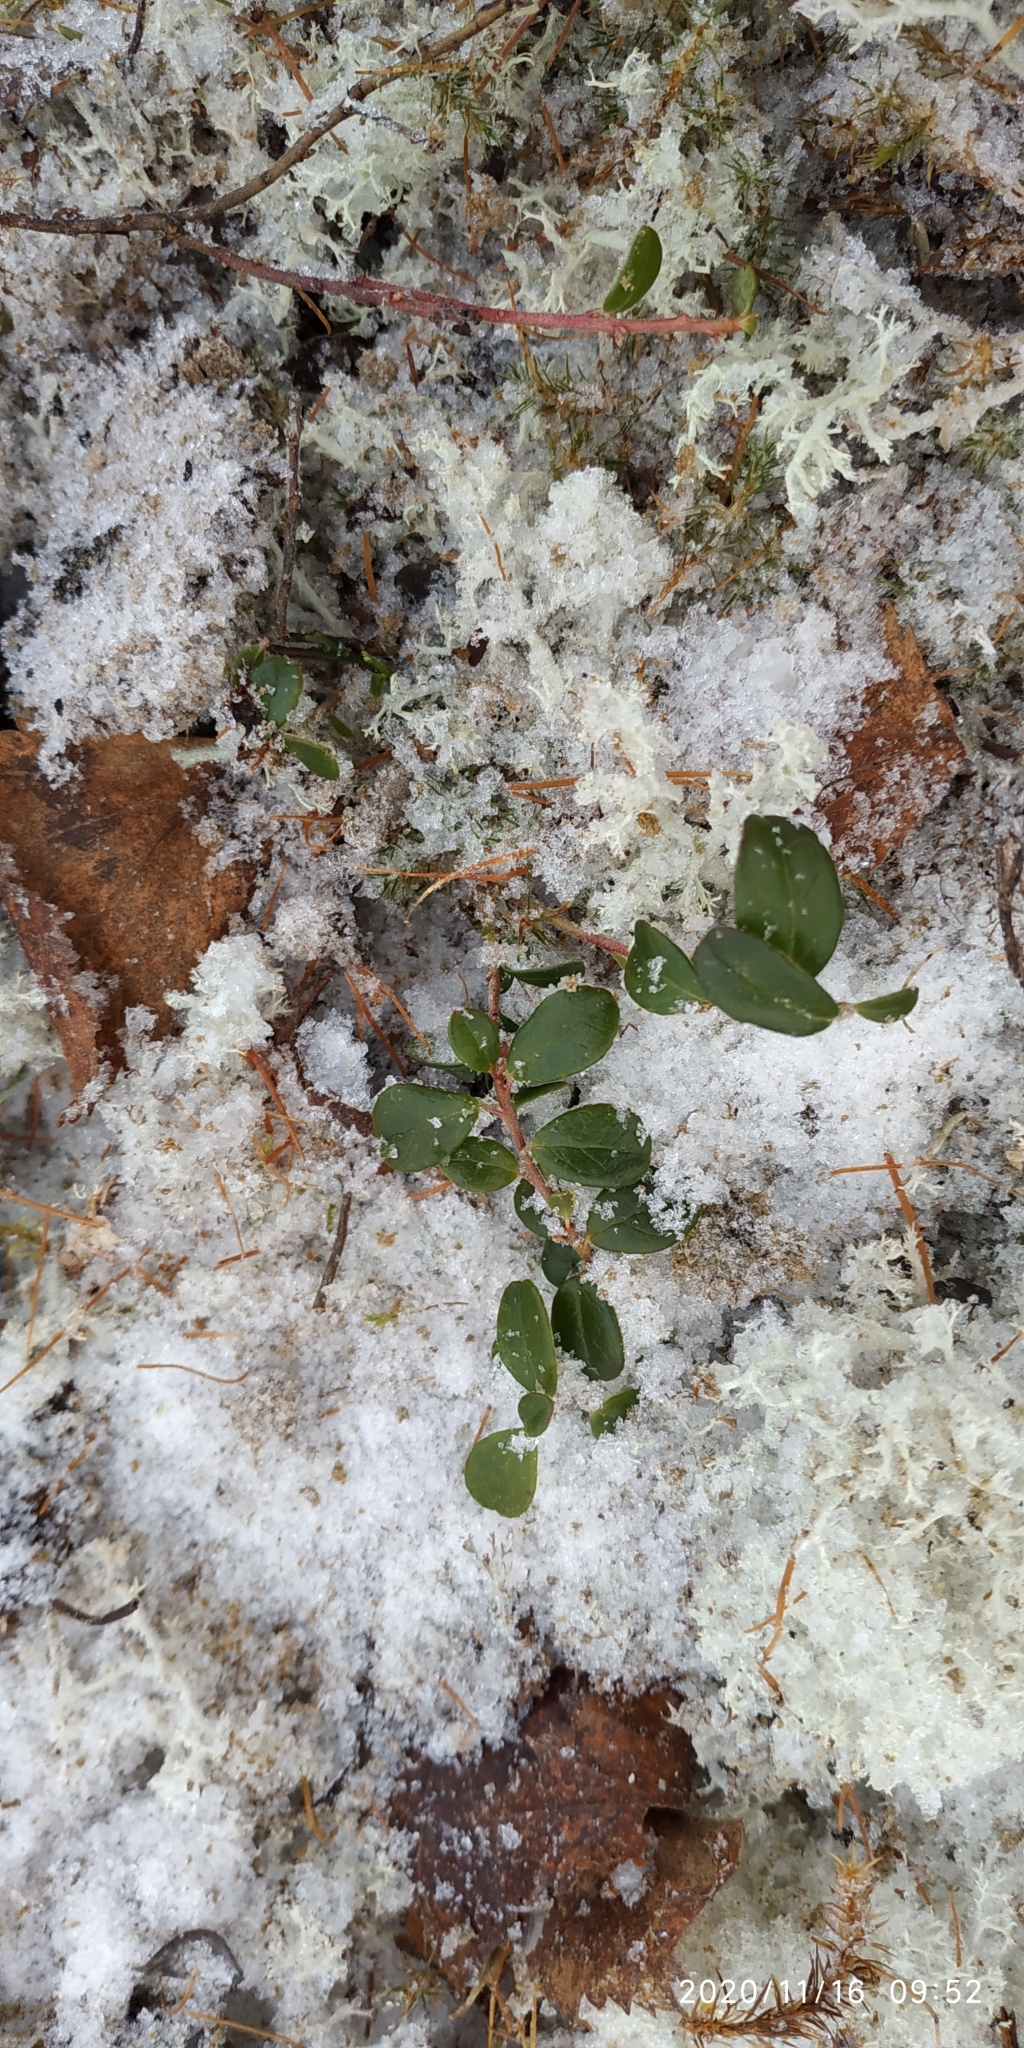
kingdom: Plantae
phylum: Tracheophyta
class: Magnoliopsida
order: Ericales
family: Ericaceae
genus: Vaccinium
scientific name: Vaccinium vitis-idaea
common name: Cowberry
